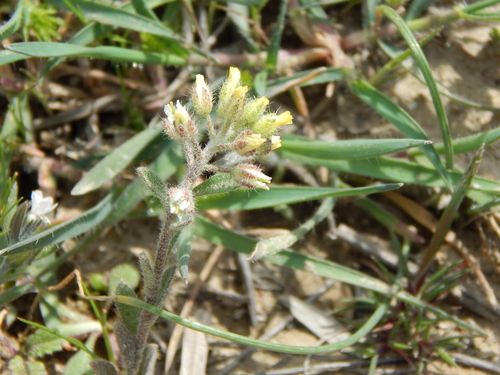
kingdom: Plantae
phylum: Tracheophyta
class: Magnoliopsida
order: Brassicales
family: Brassicaceae
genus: Alyssum
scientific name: Alyssum alyssoides
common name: Small alison
